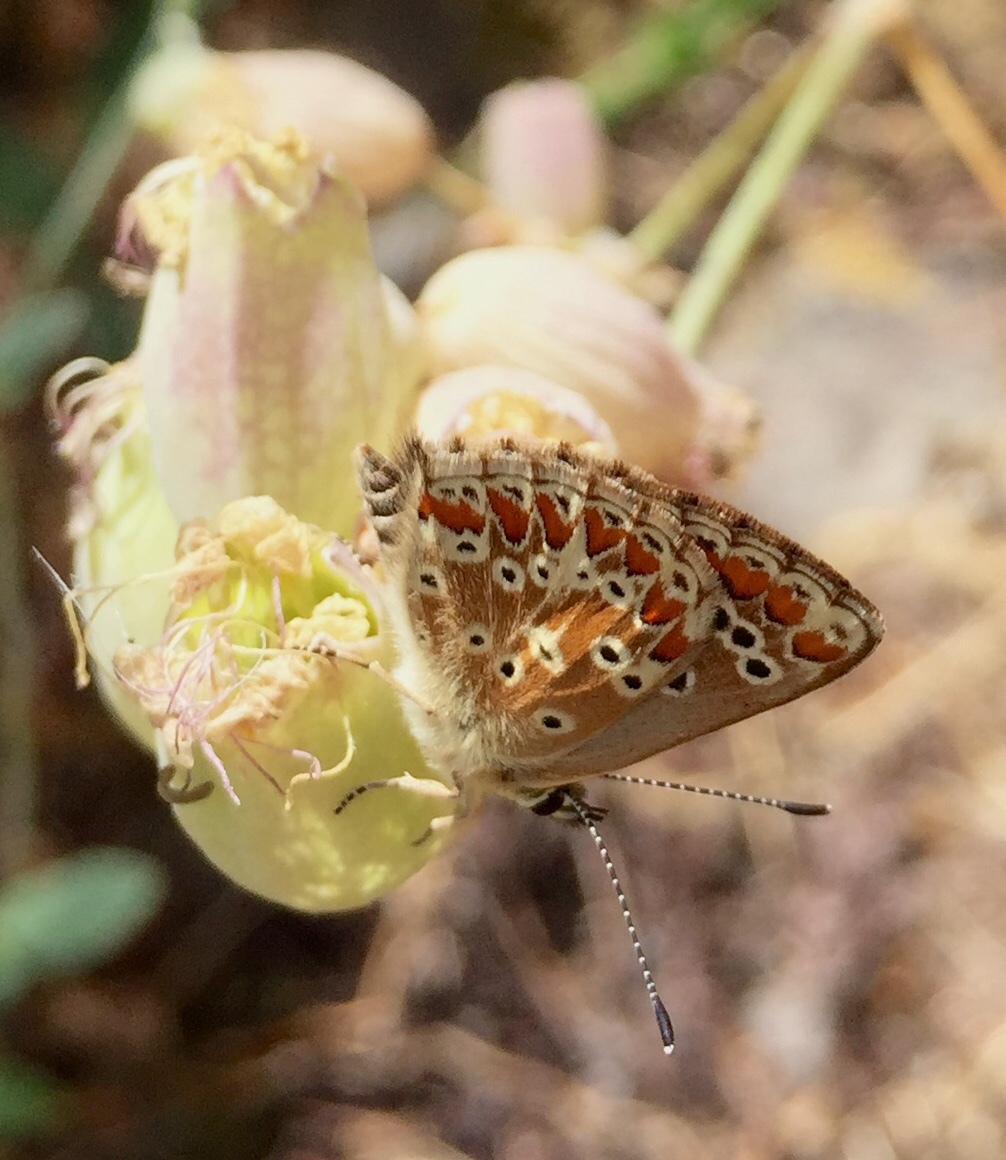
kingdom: Animalia
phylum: Arthropoda
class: Insecta
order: Lepidoptera
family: Lycaenidae
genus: Aricia
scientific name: Aricia cramera
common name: Eschscholtz´s brown  argus
